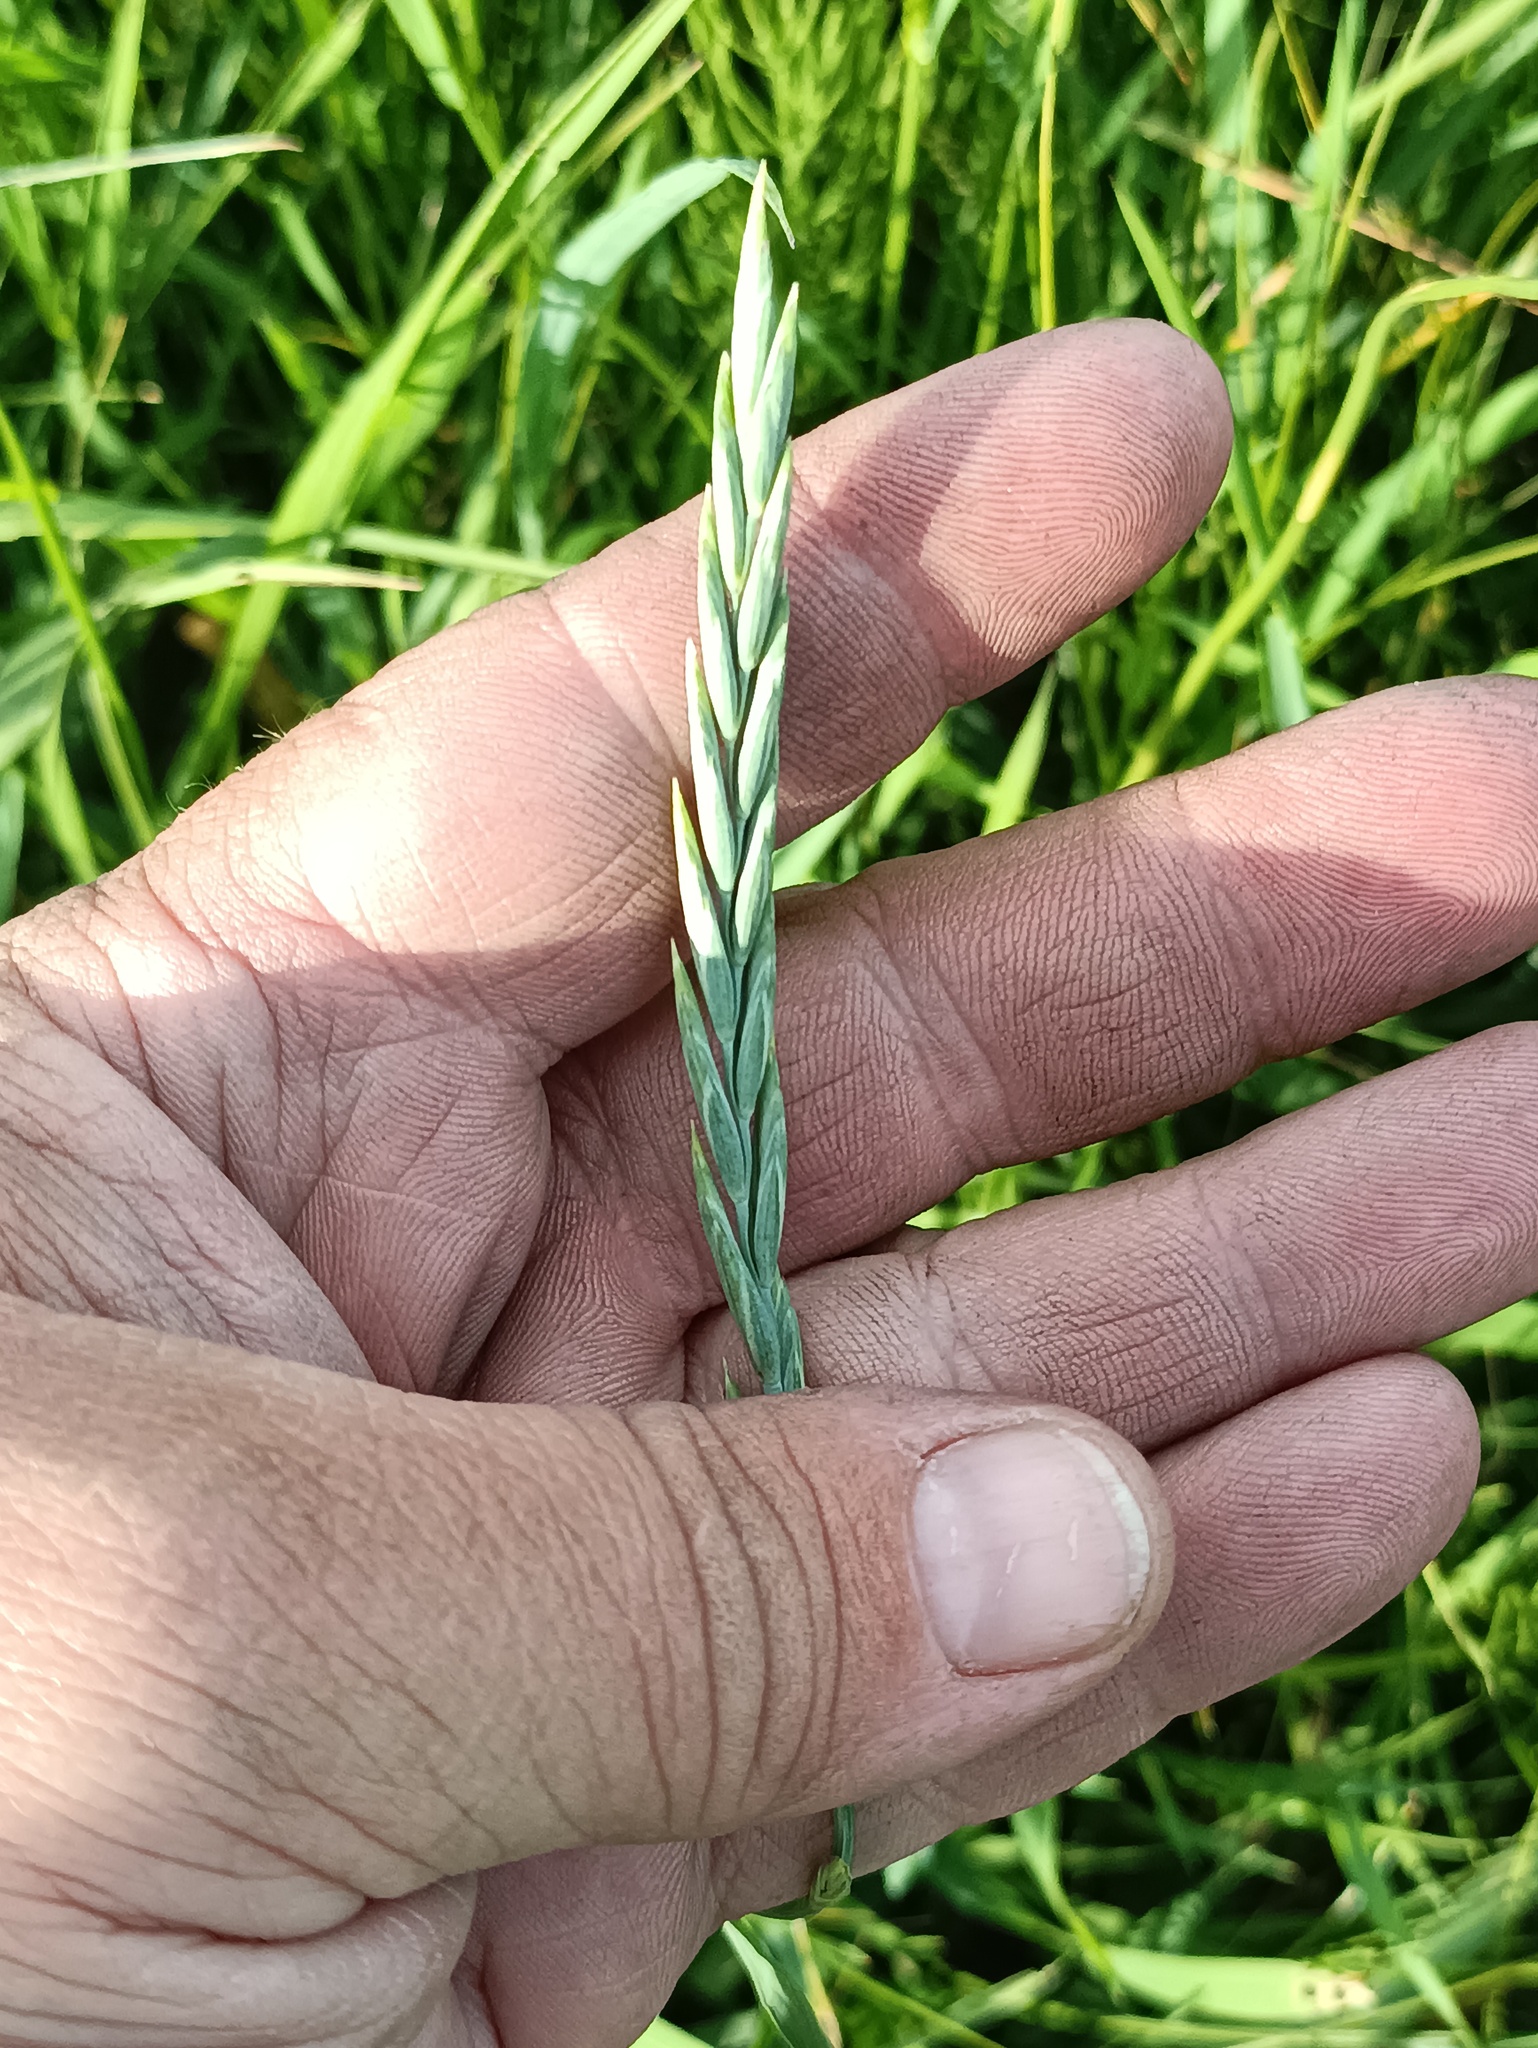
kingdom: Plantae
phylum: Tracheophyta
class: Liliopsida
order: Poales
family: Poaceae
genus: Elymus
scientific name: Elymus repens
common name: Quackgrass
